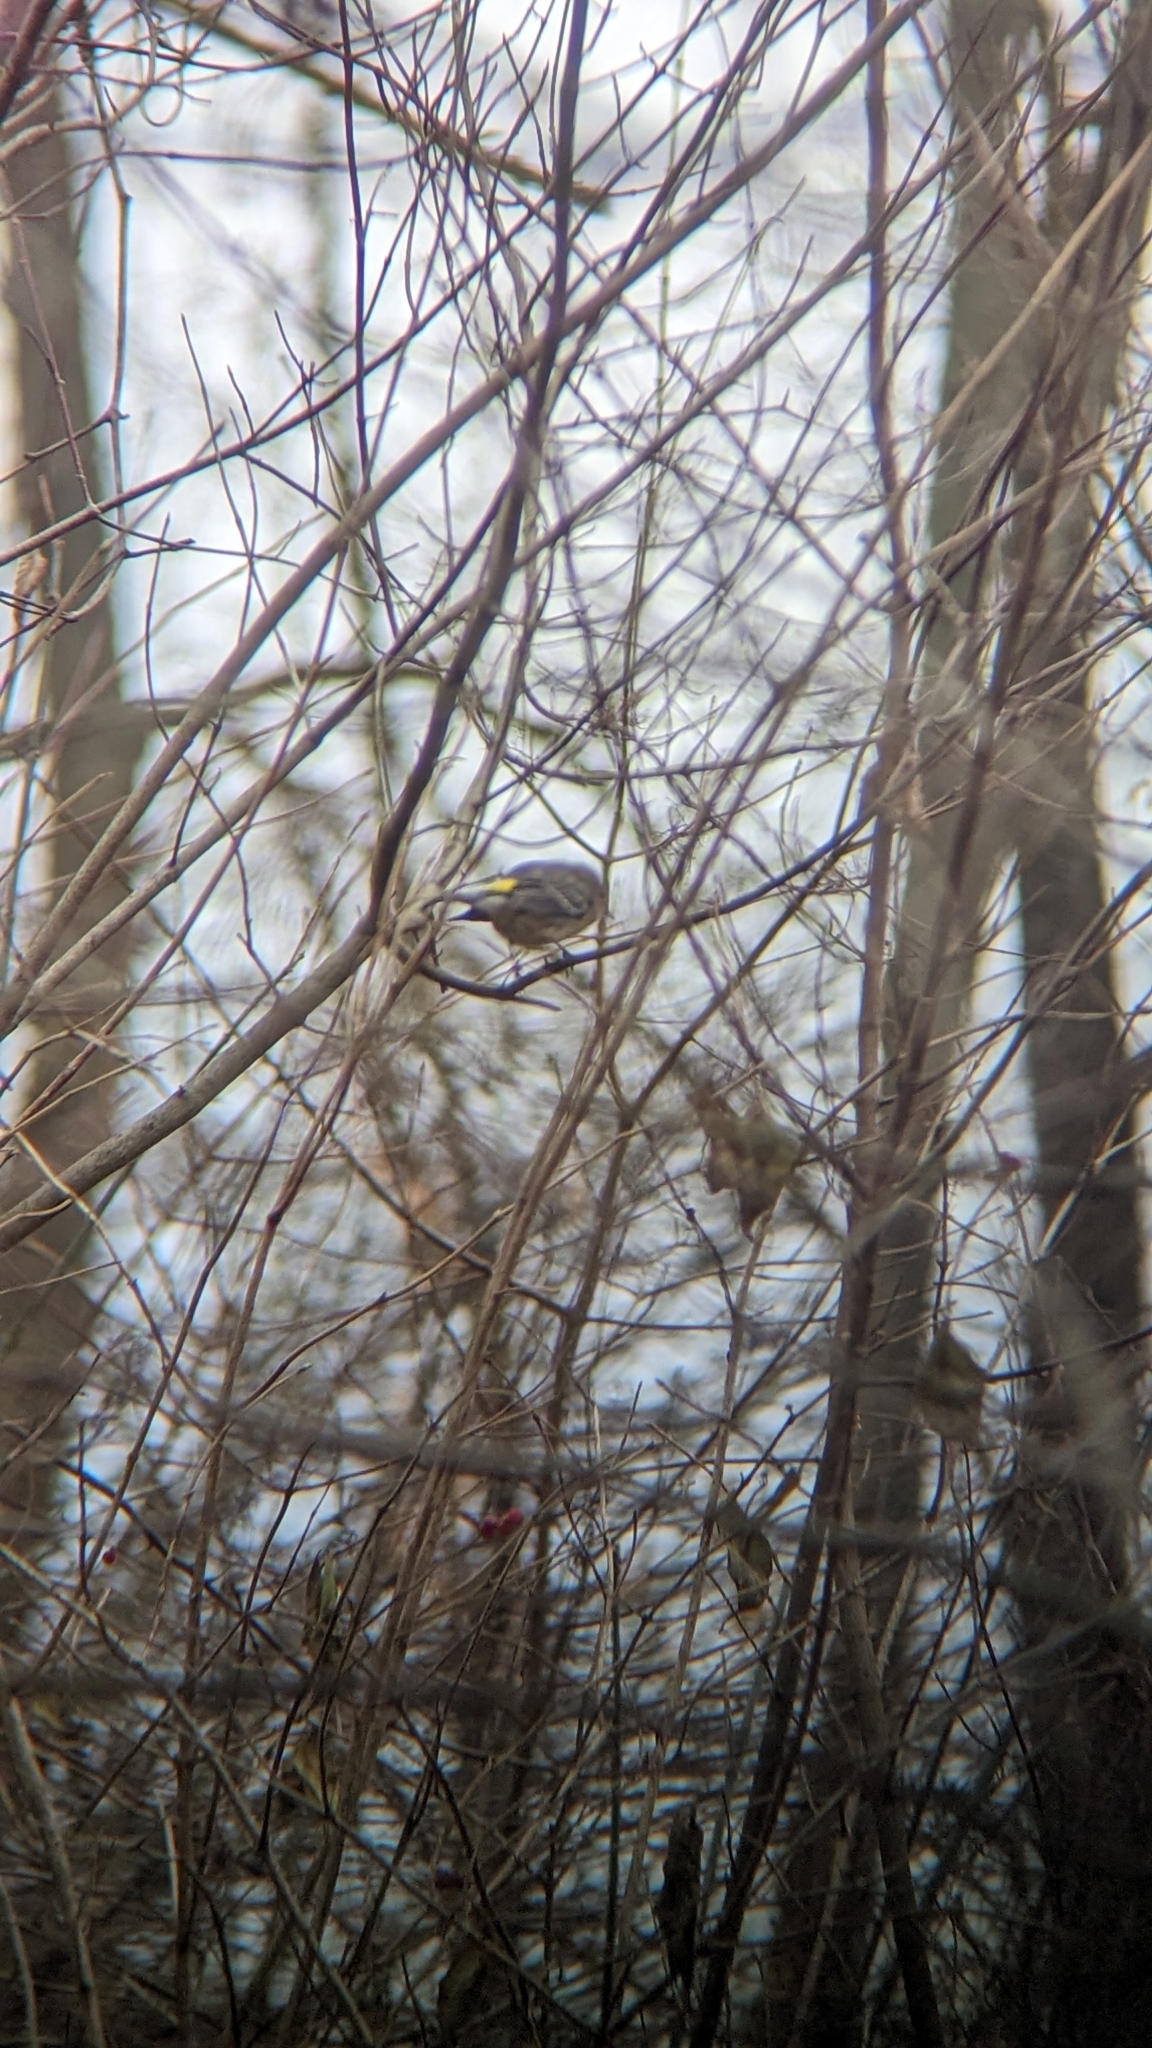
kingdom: Animalia
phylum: Chordata
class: Aves
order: Passeriformes
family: Parulidae
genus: Setophaga
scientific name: Setophaga coronata
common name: Myrtle warbler
